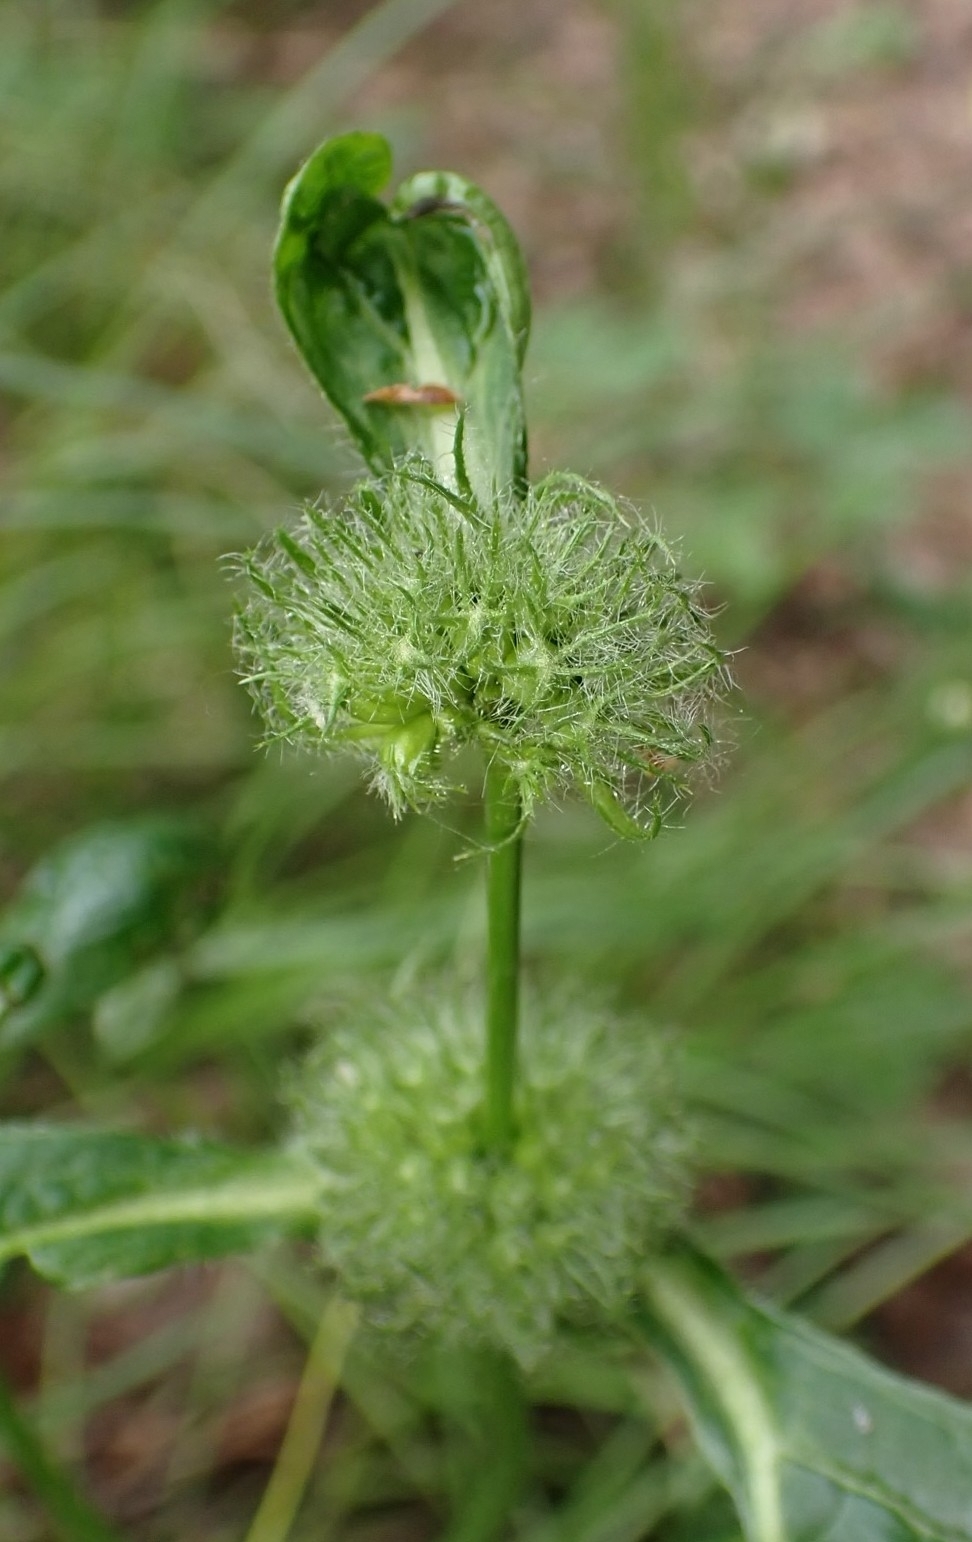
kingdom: Plantae
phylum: Tracheophyta
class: Magnoliopsida
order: Lamiales
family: Lamiaceae
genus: Phlomoides
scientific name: Phlomoides tuberosa
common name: Tuberous jerusalem sage
